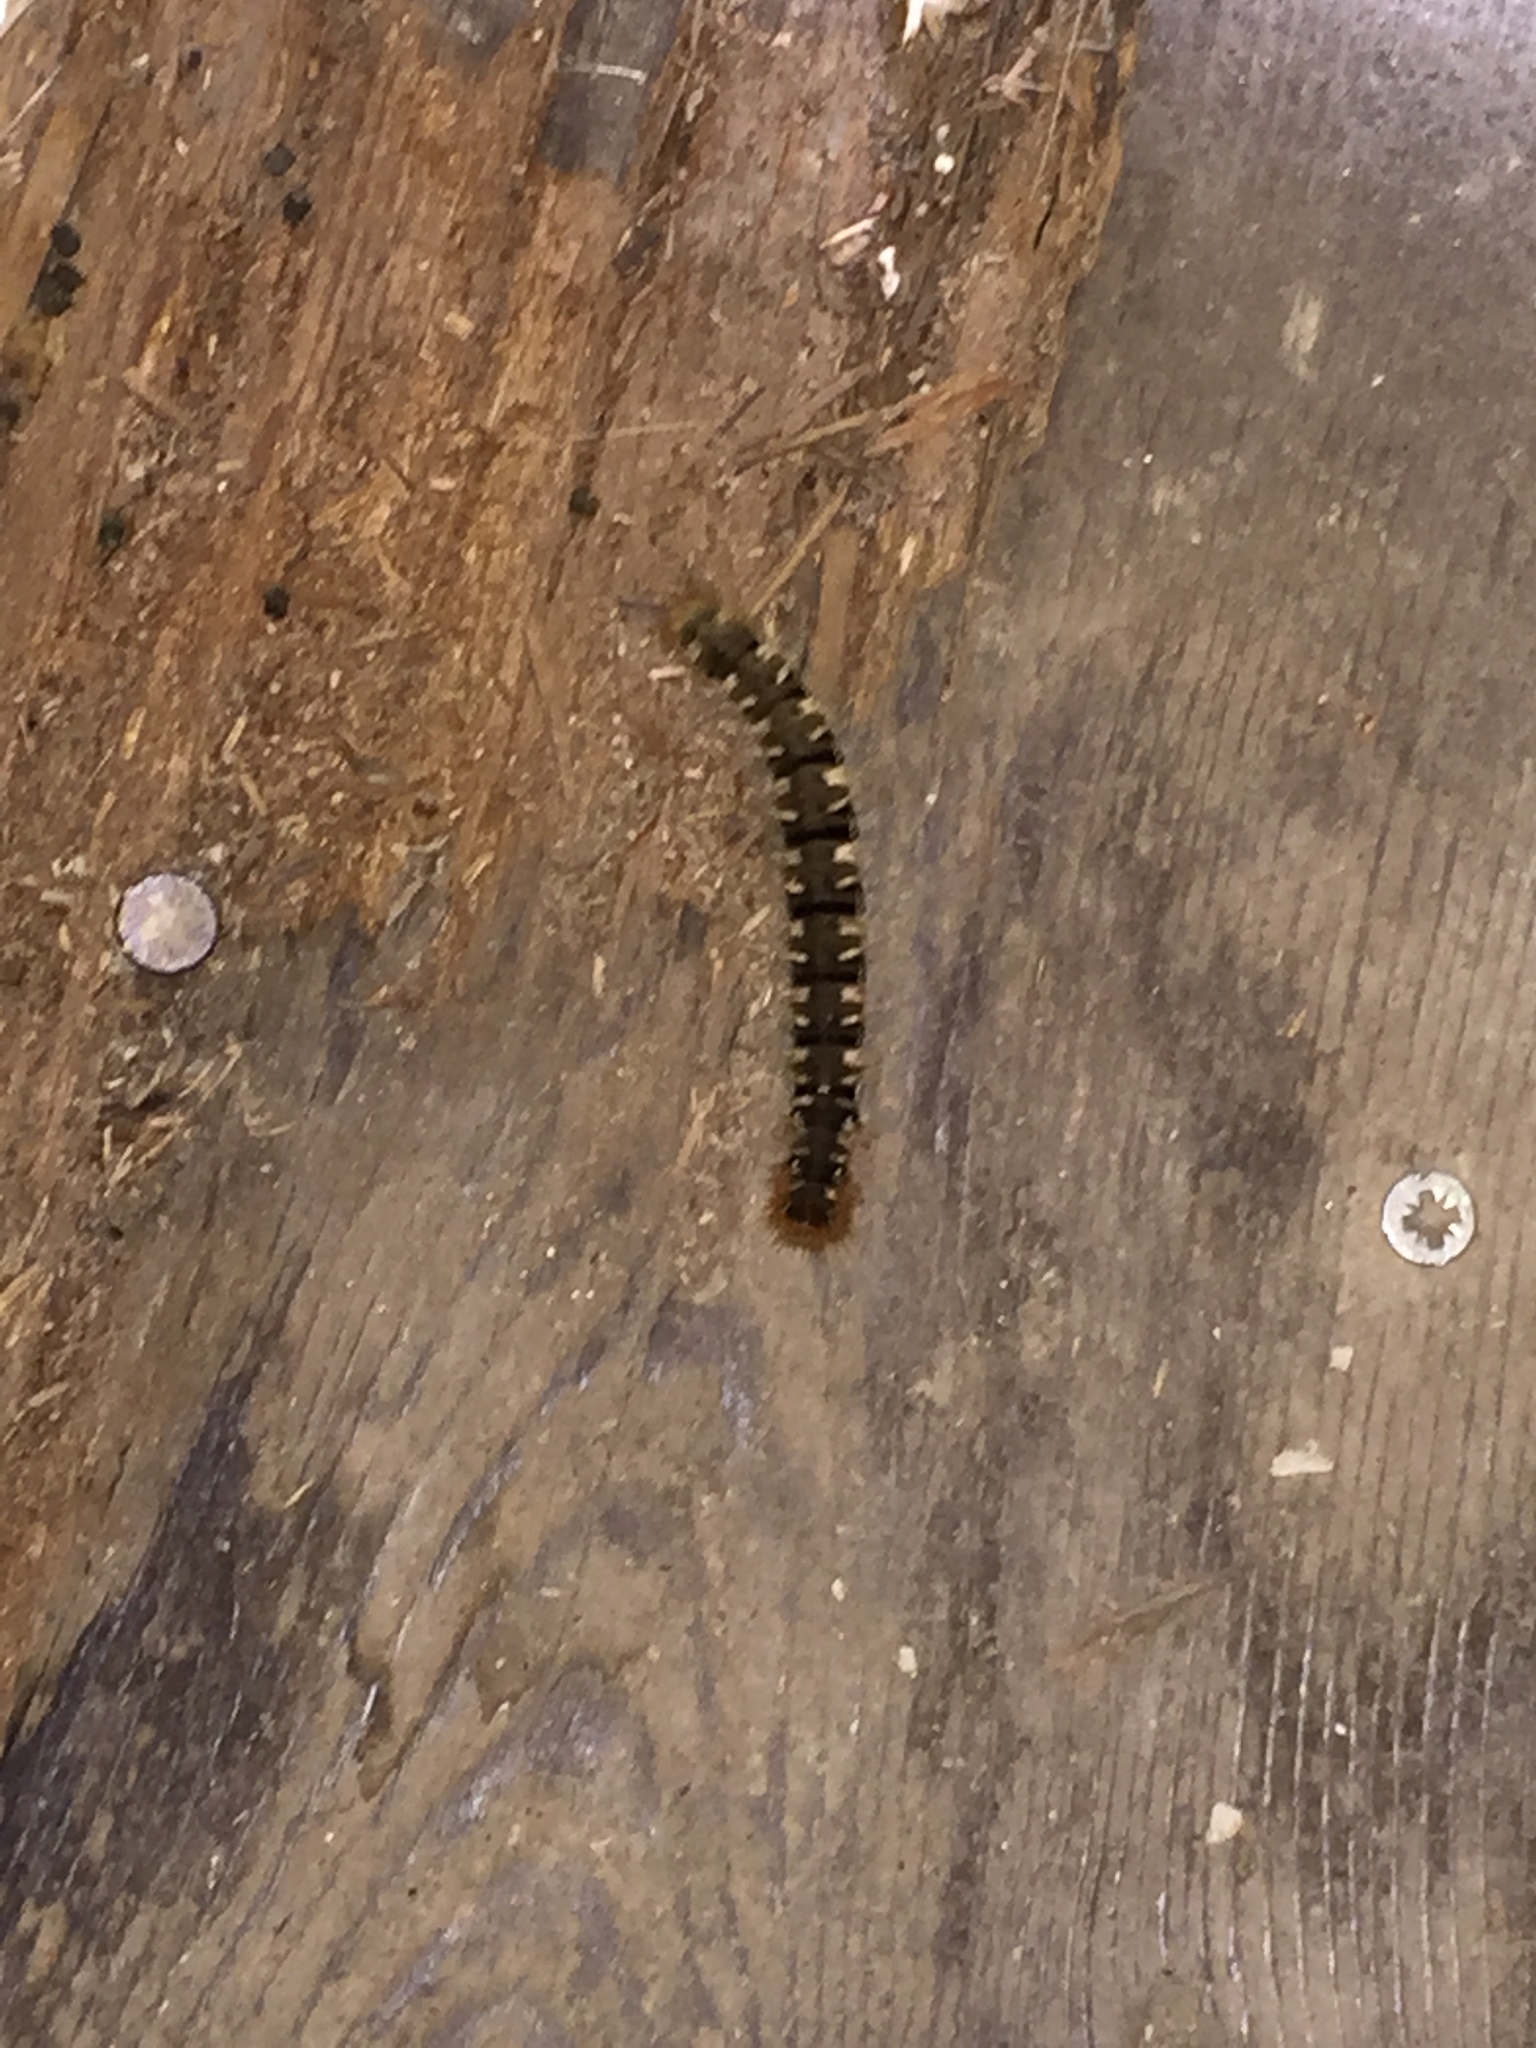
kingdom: Animalia
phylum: Arthropoda
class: Insecta
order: Lepidoptera
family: Lasiocampidae
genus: Lasiocampa
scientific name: Lasiocampa quercus
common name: Oak eggar
